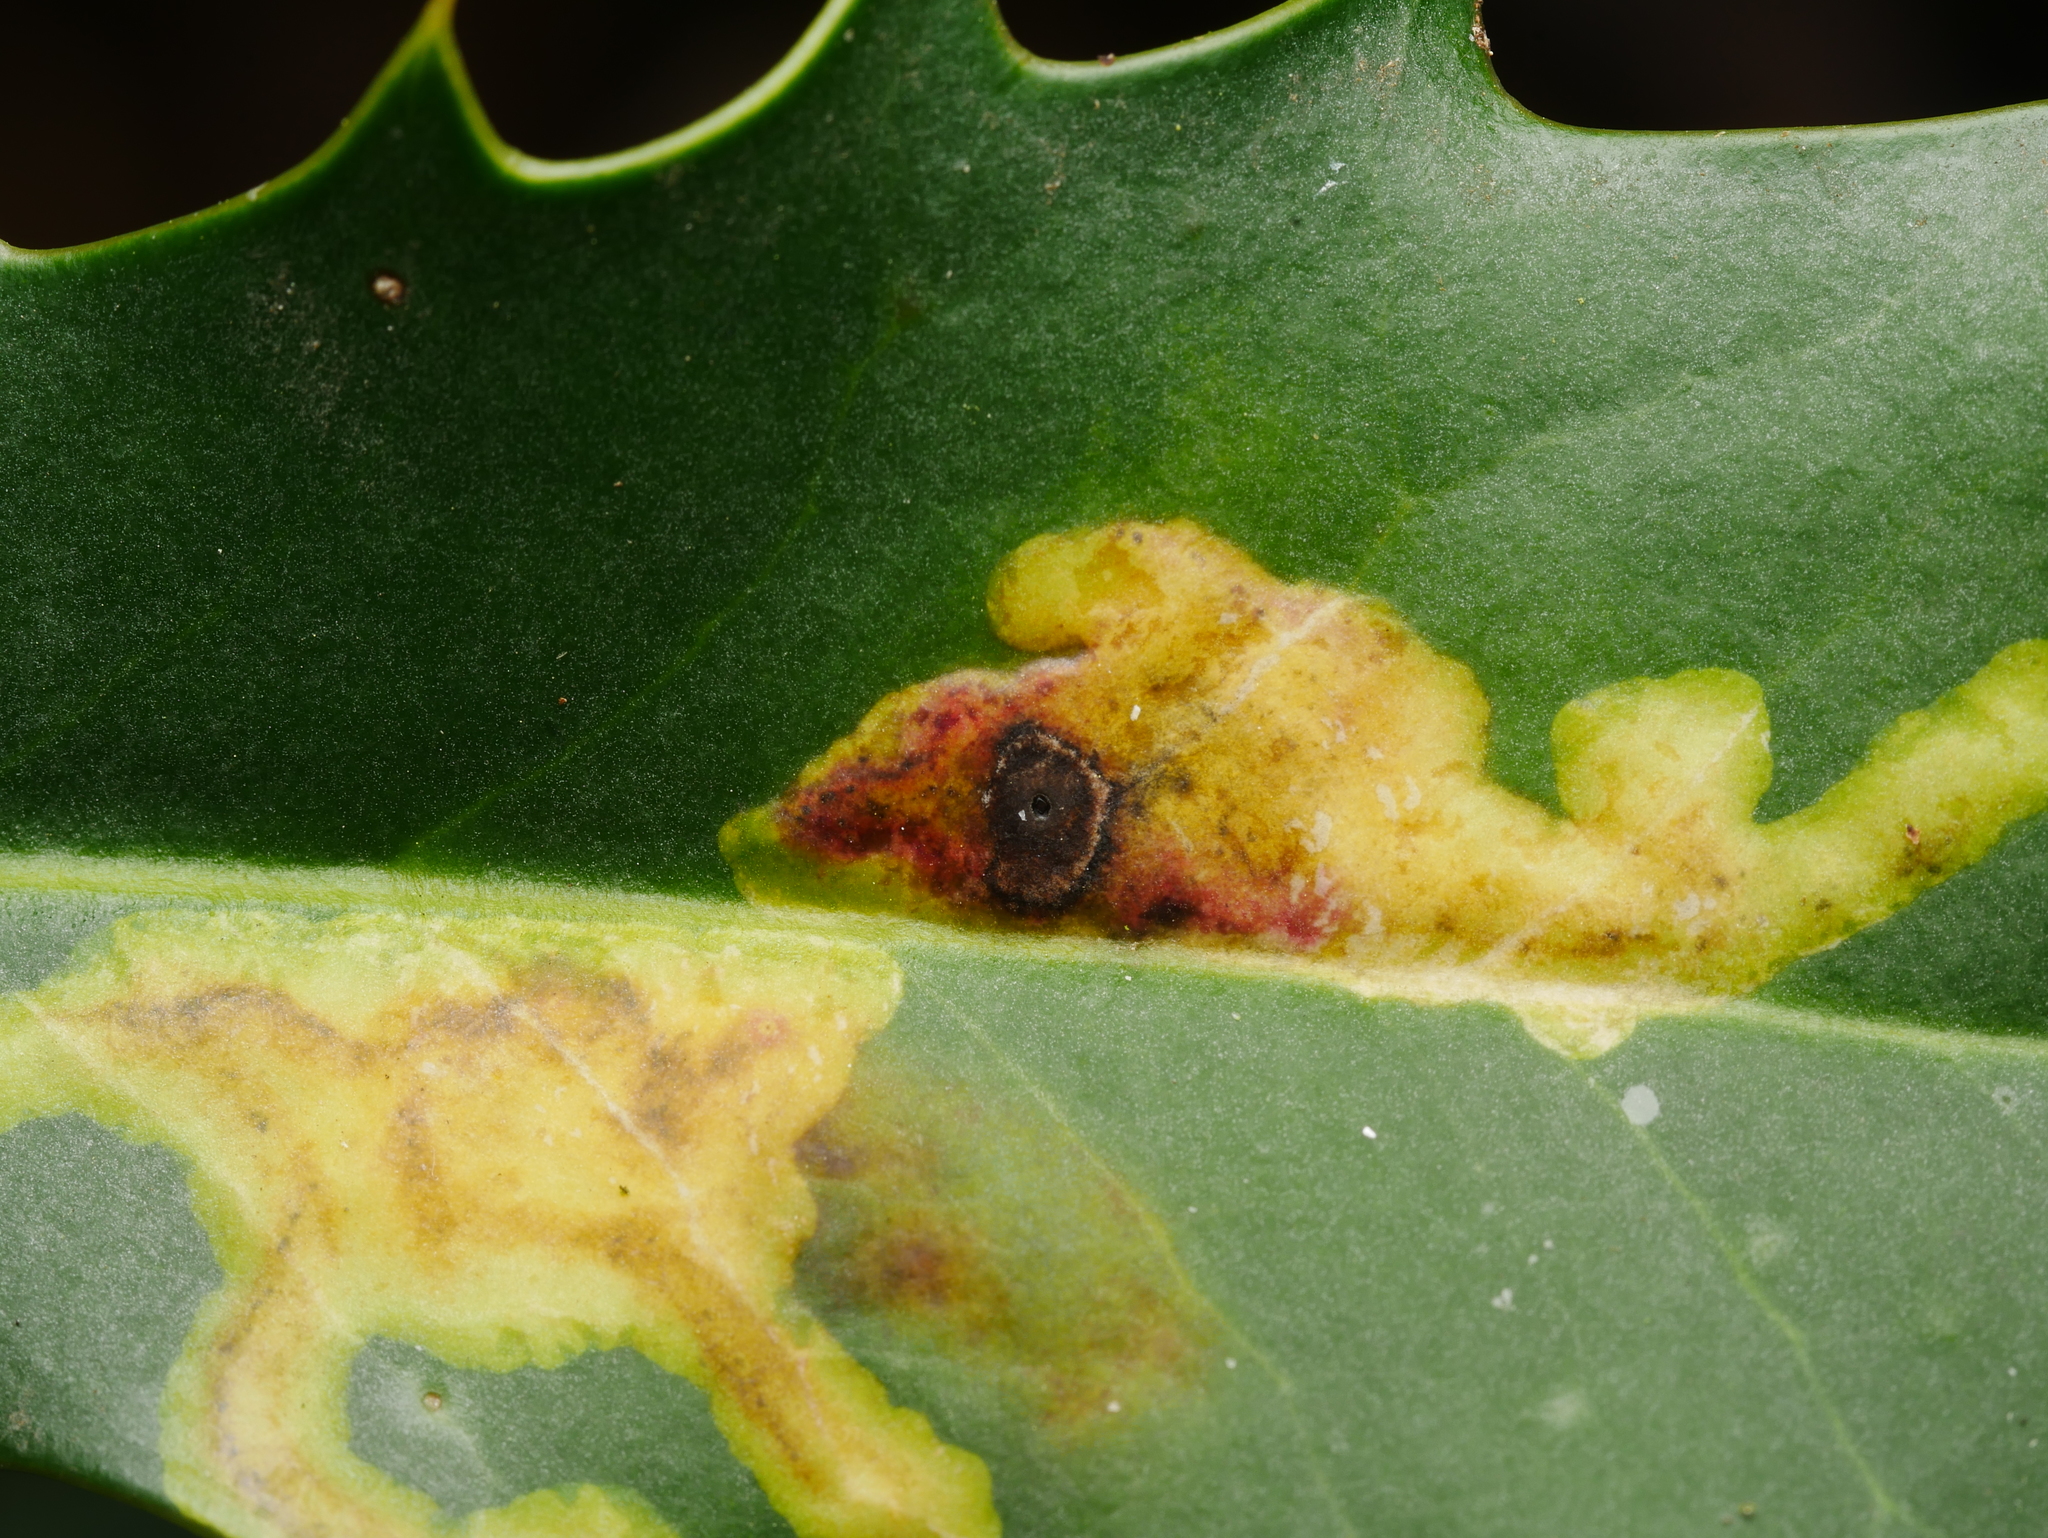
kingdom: Animalia
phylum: Arthropoda
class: Insecta
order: Diptera
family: Agromyzidae
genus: Phytomyza
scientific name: Phytomyza ilicis
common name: Holly leafminer
